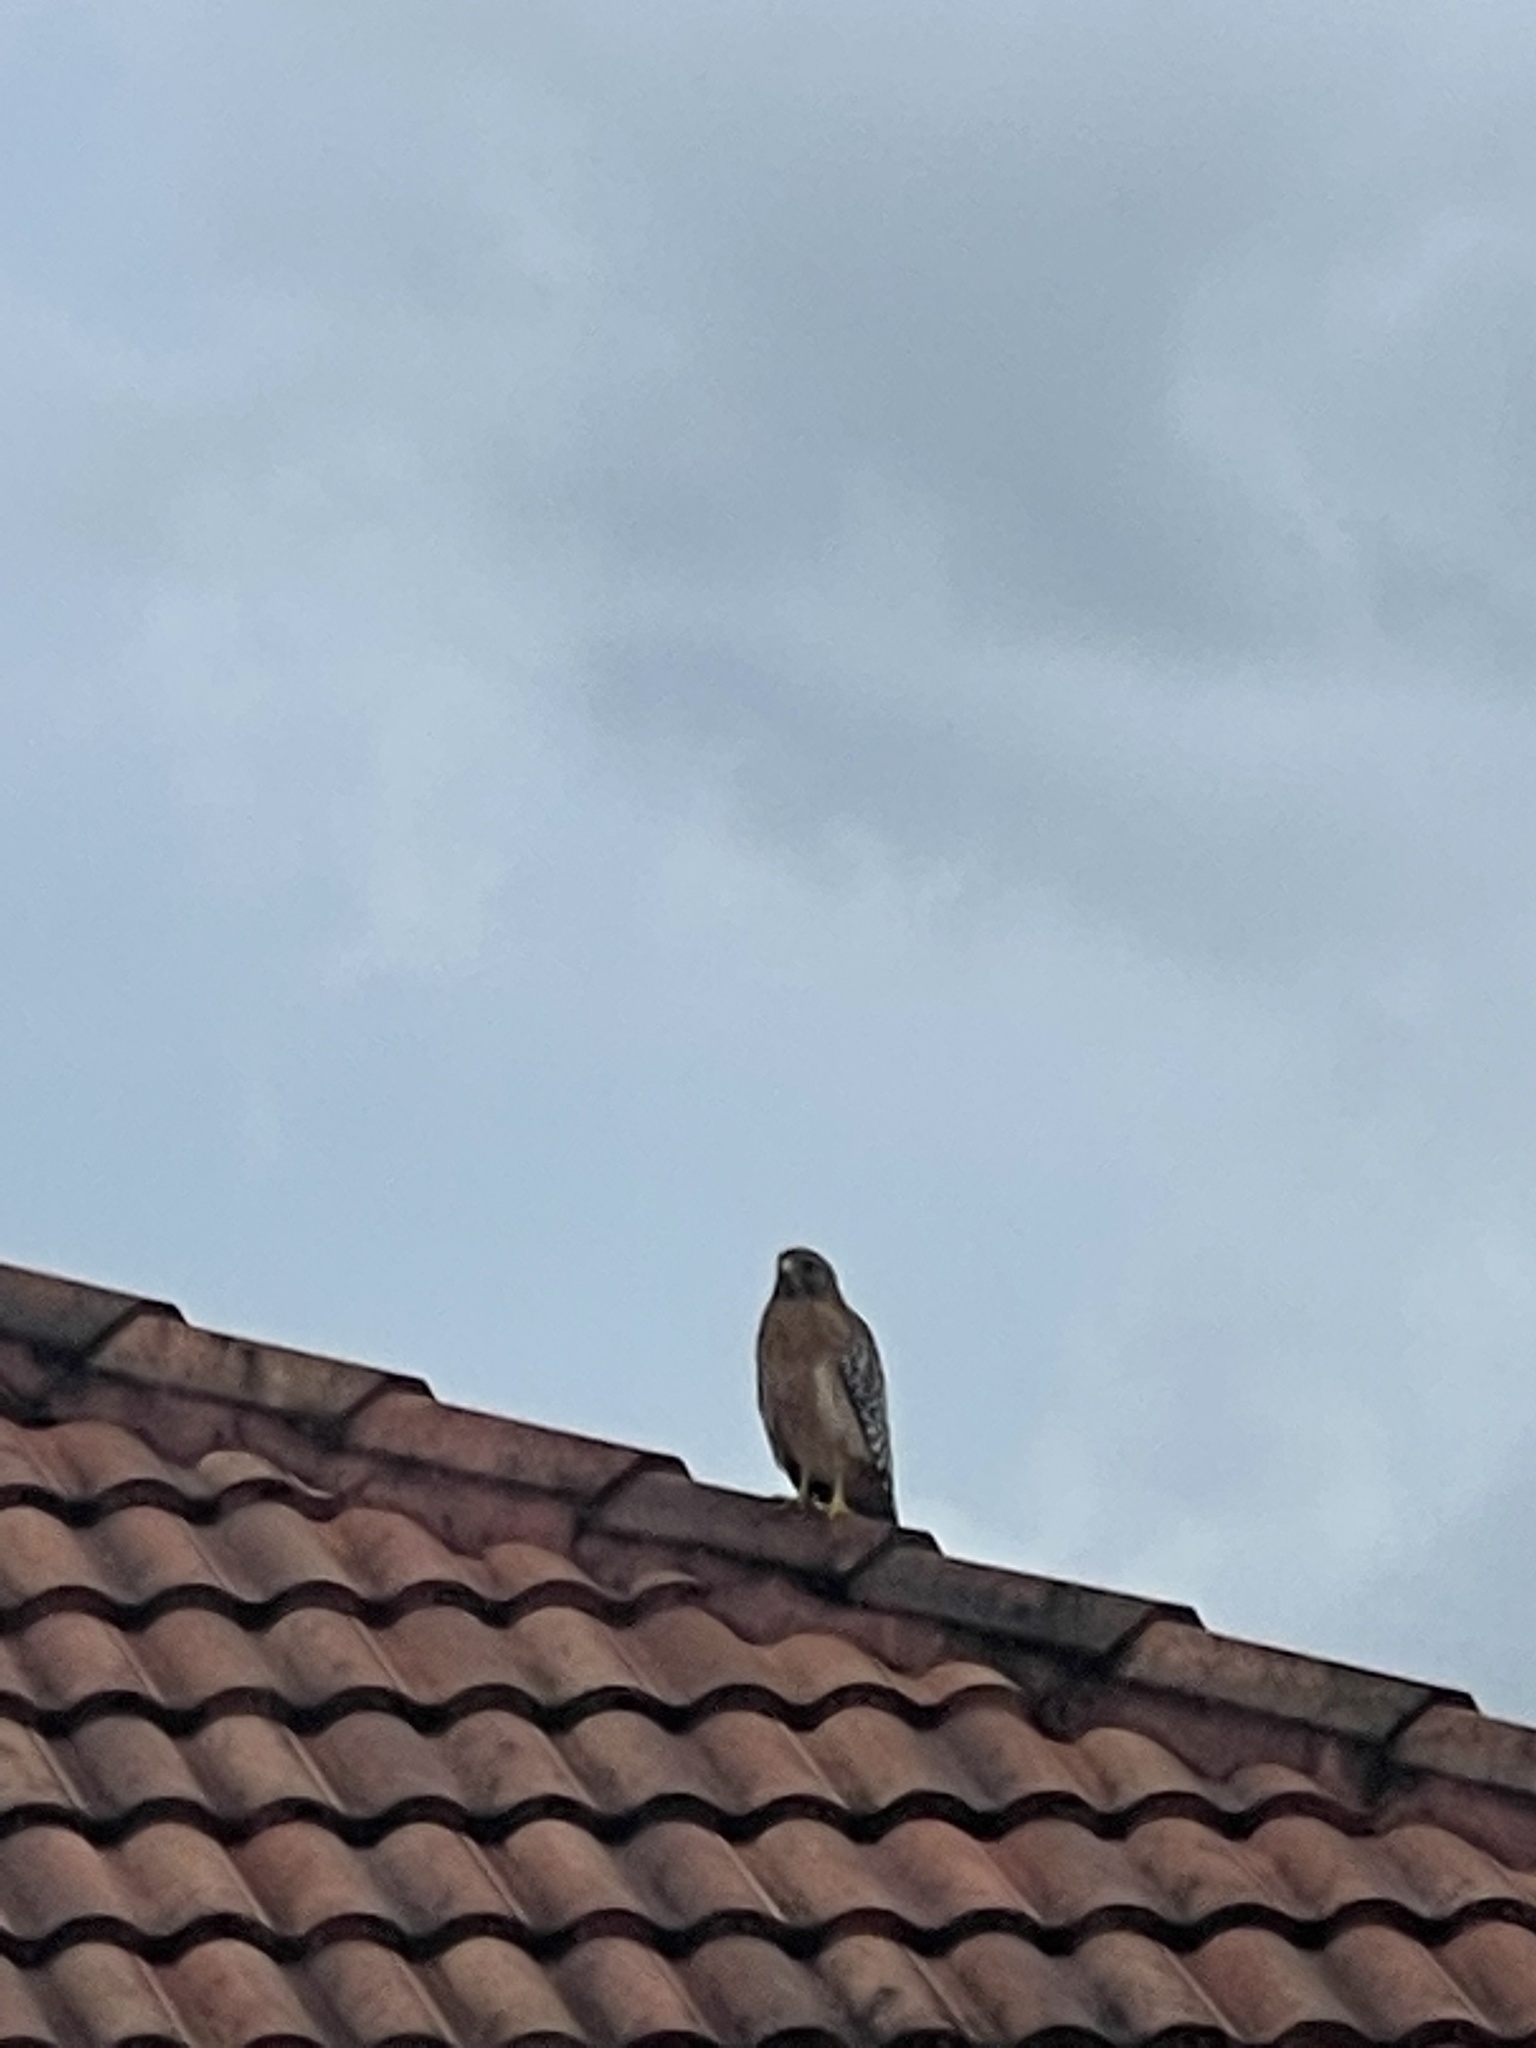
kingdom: Animalia
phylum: Chordata
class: Aves
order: Accipitriformes
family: Accipitridae
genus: Buteo
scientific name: Buteo lineatus
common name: Red-shouldered hawk
